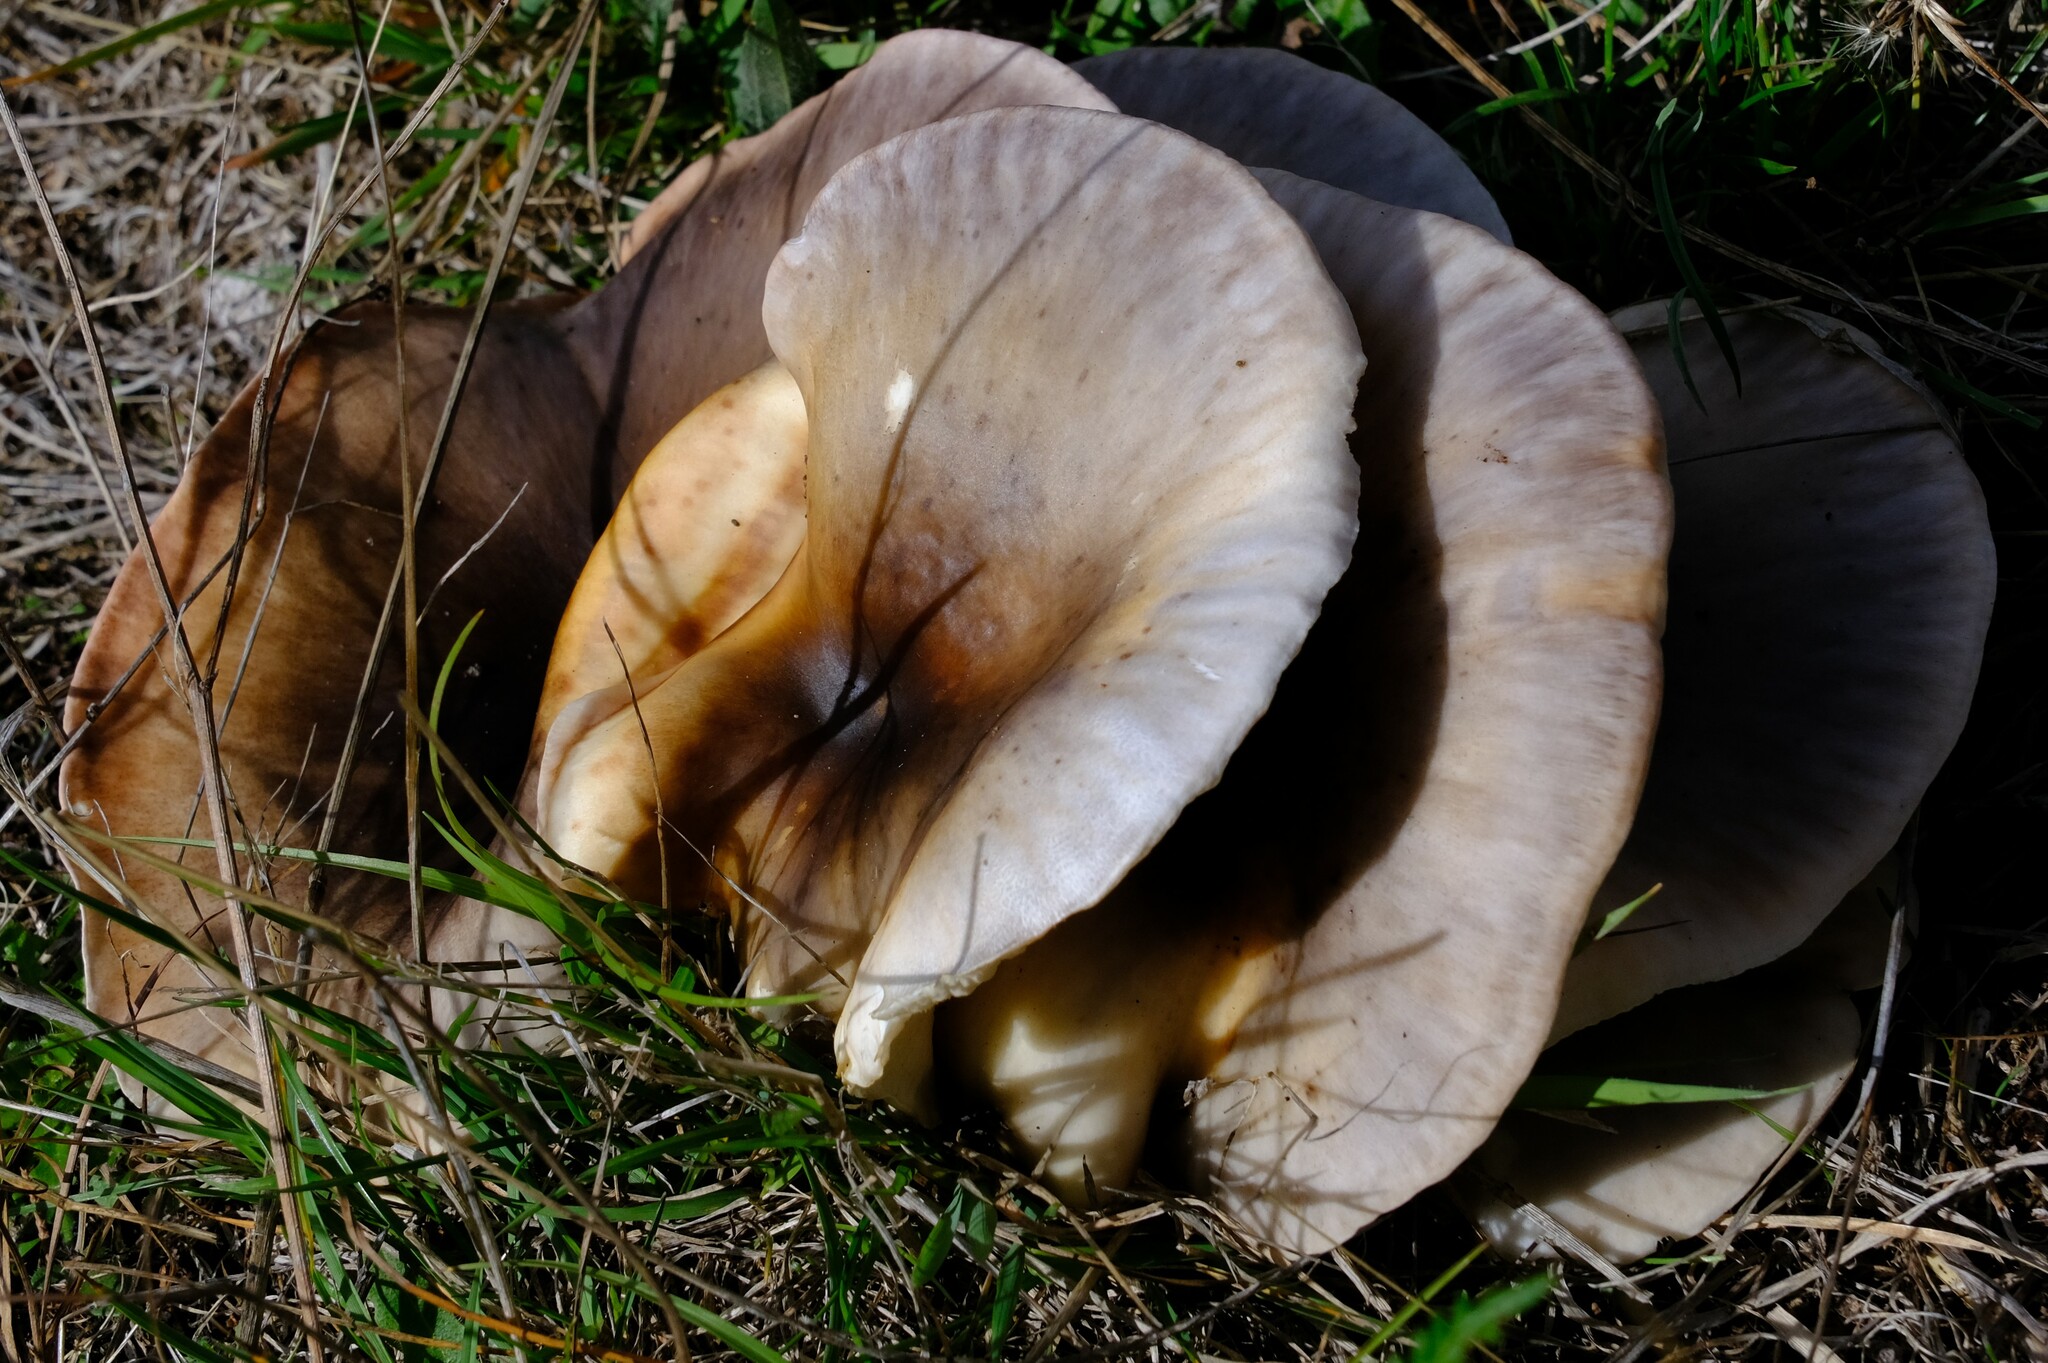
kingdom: Fungi
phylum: Basidiomycota
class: Agaricomycetes
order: Agaricales
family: Omphalotaceae
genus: Omphalotus
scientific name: Omphalotus nidiformis
